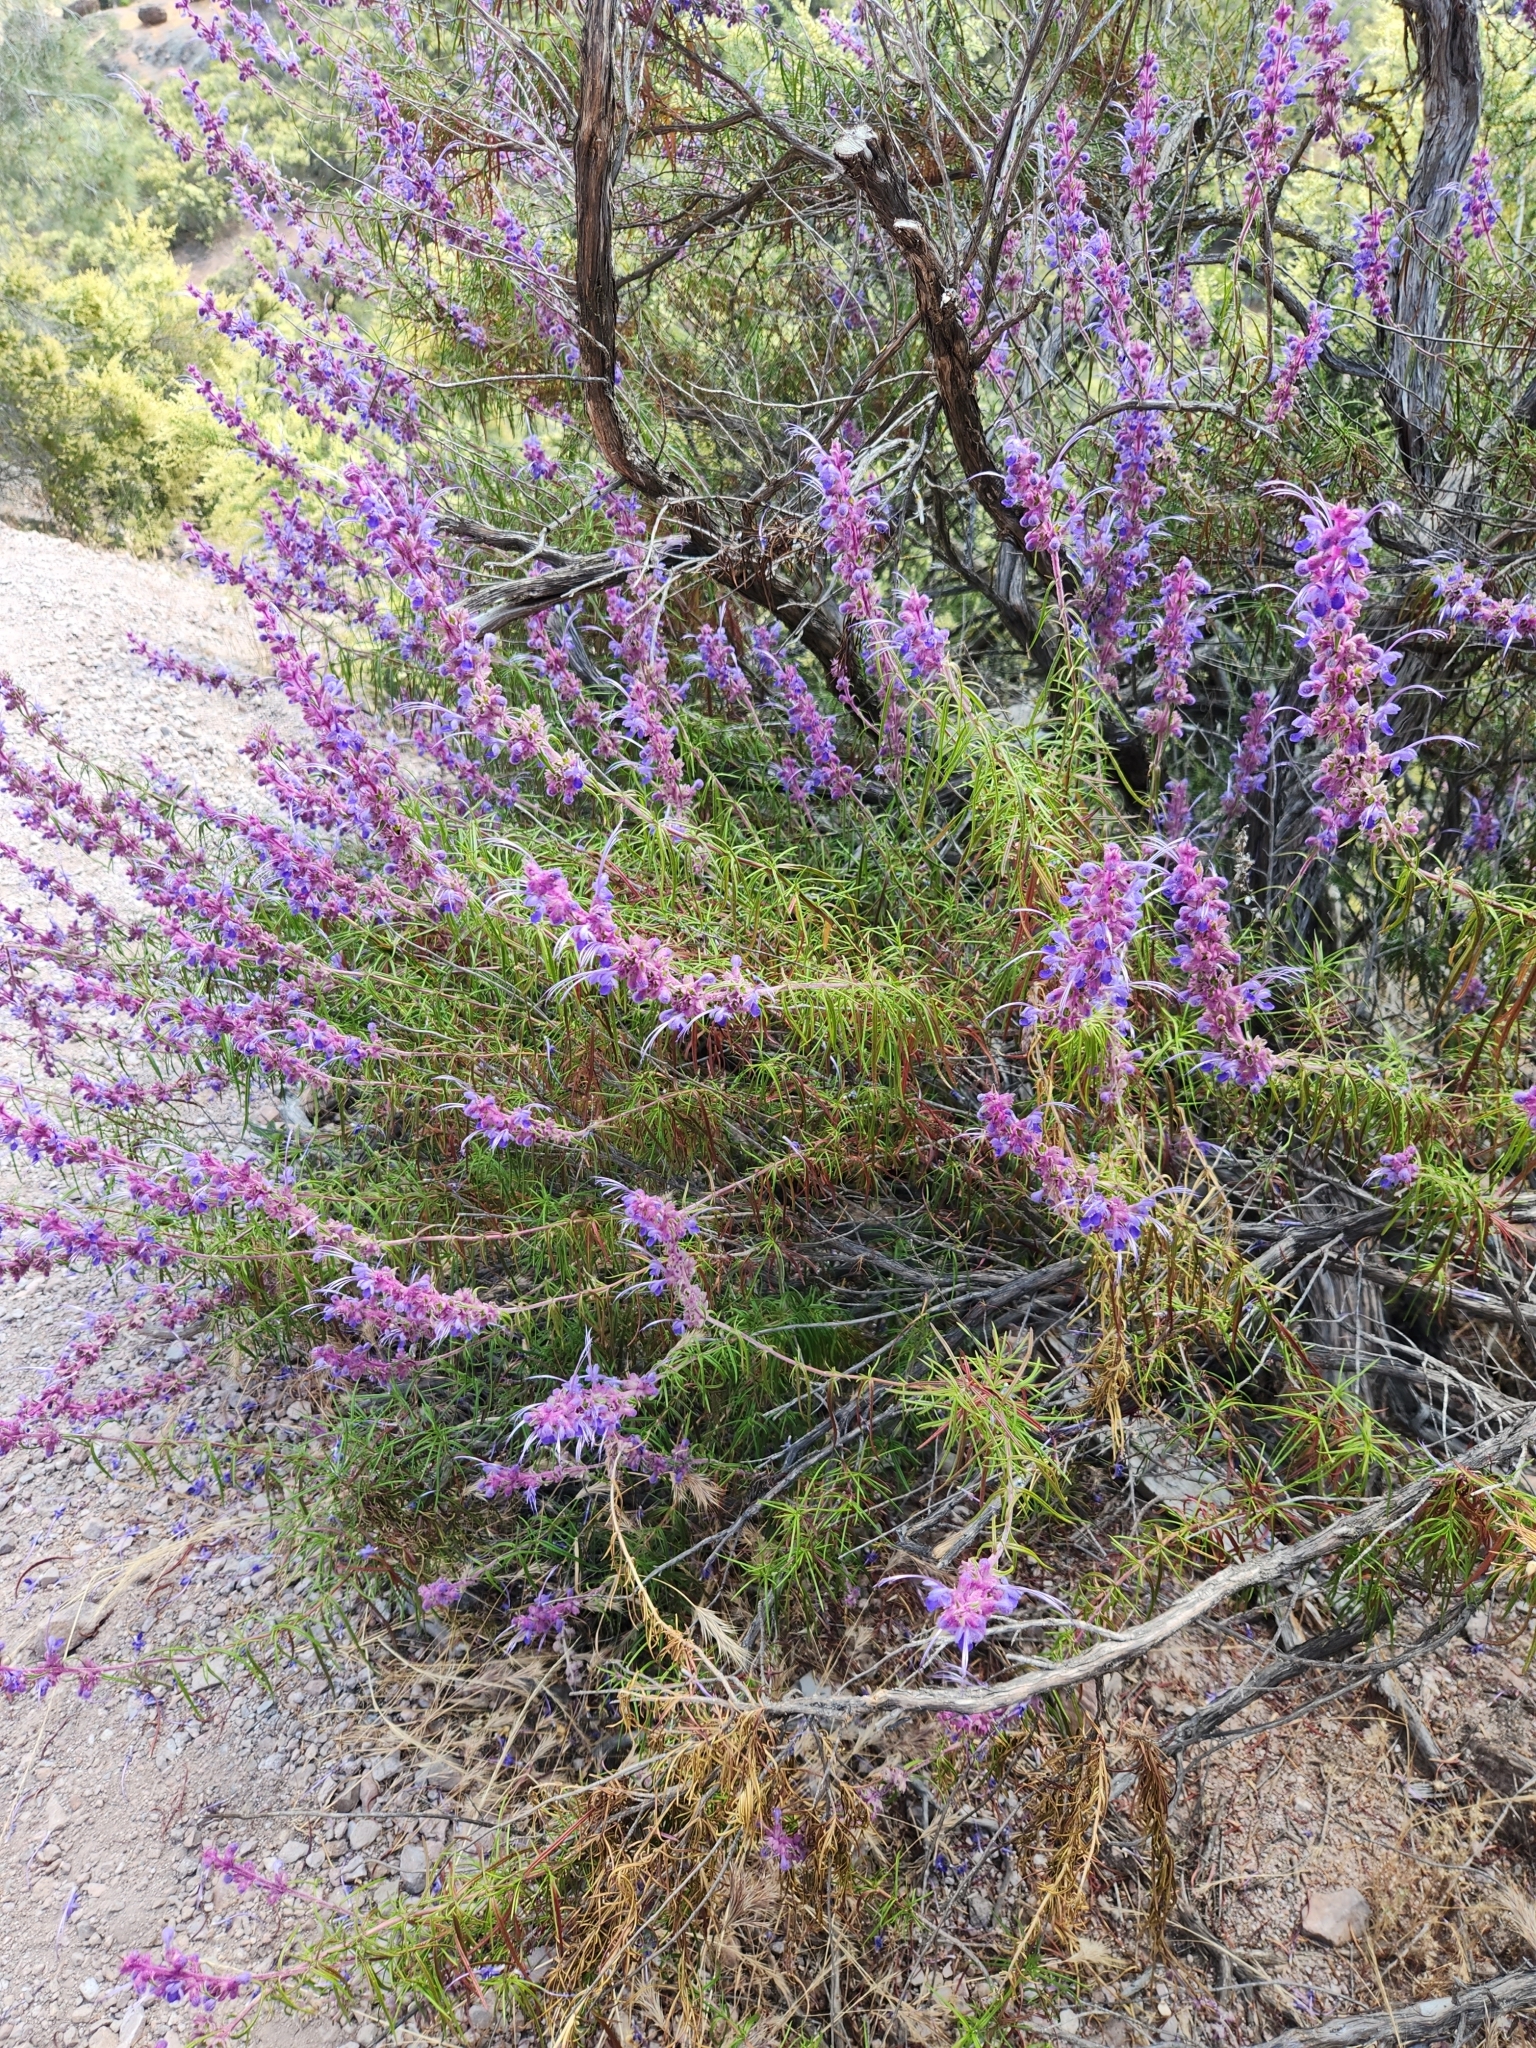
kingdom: Plantae
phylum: Tracheophyta
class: Magnoliopsida
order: Lamiales
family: Lamiaceae
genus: Trichostema
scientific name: Trichostema lanatum
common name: Woolly bluecurls
